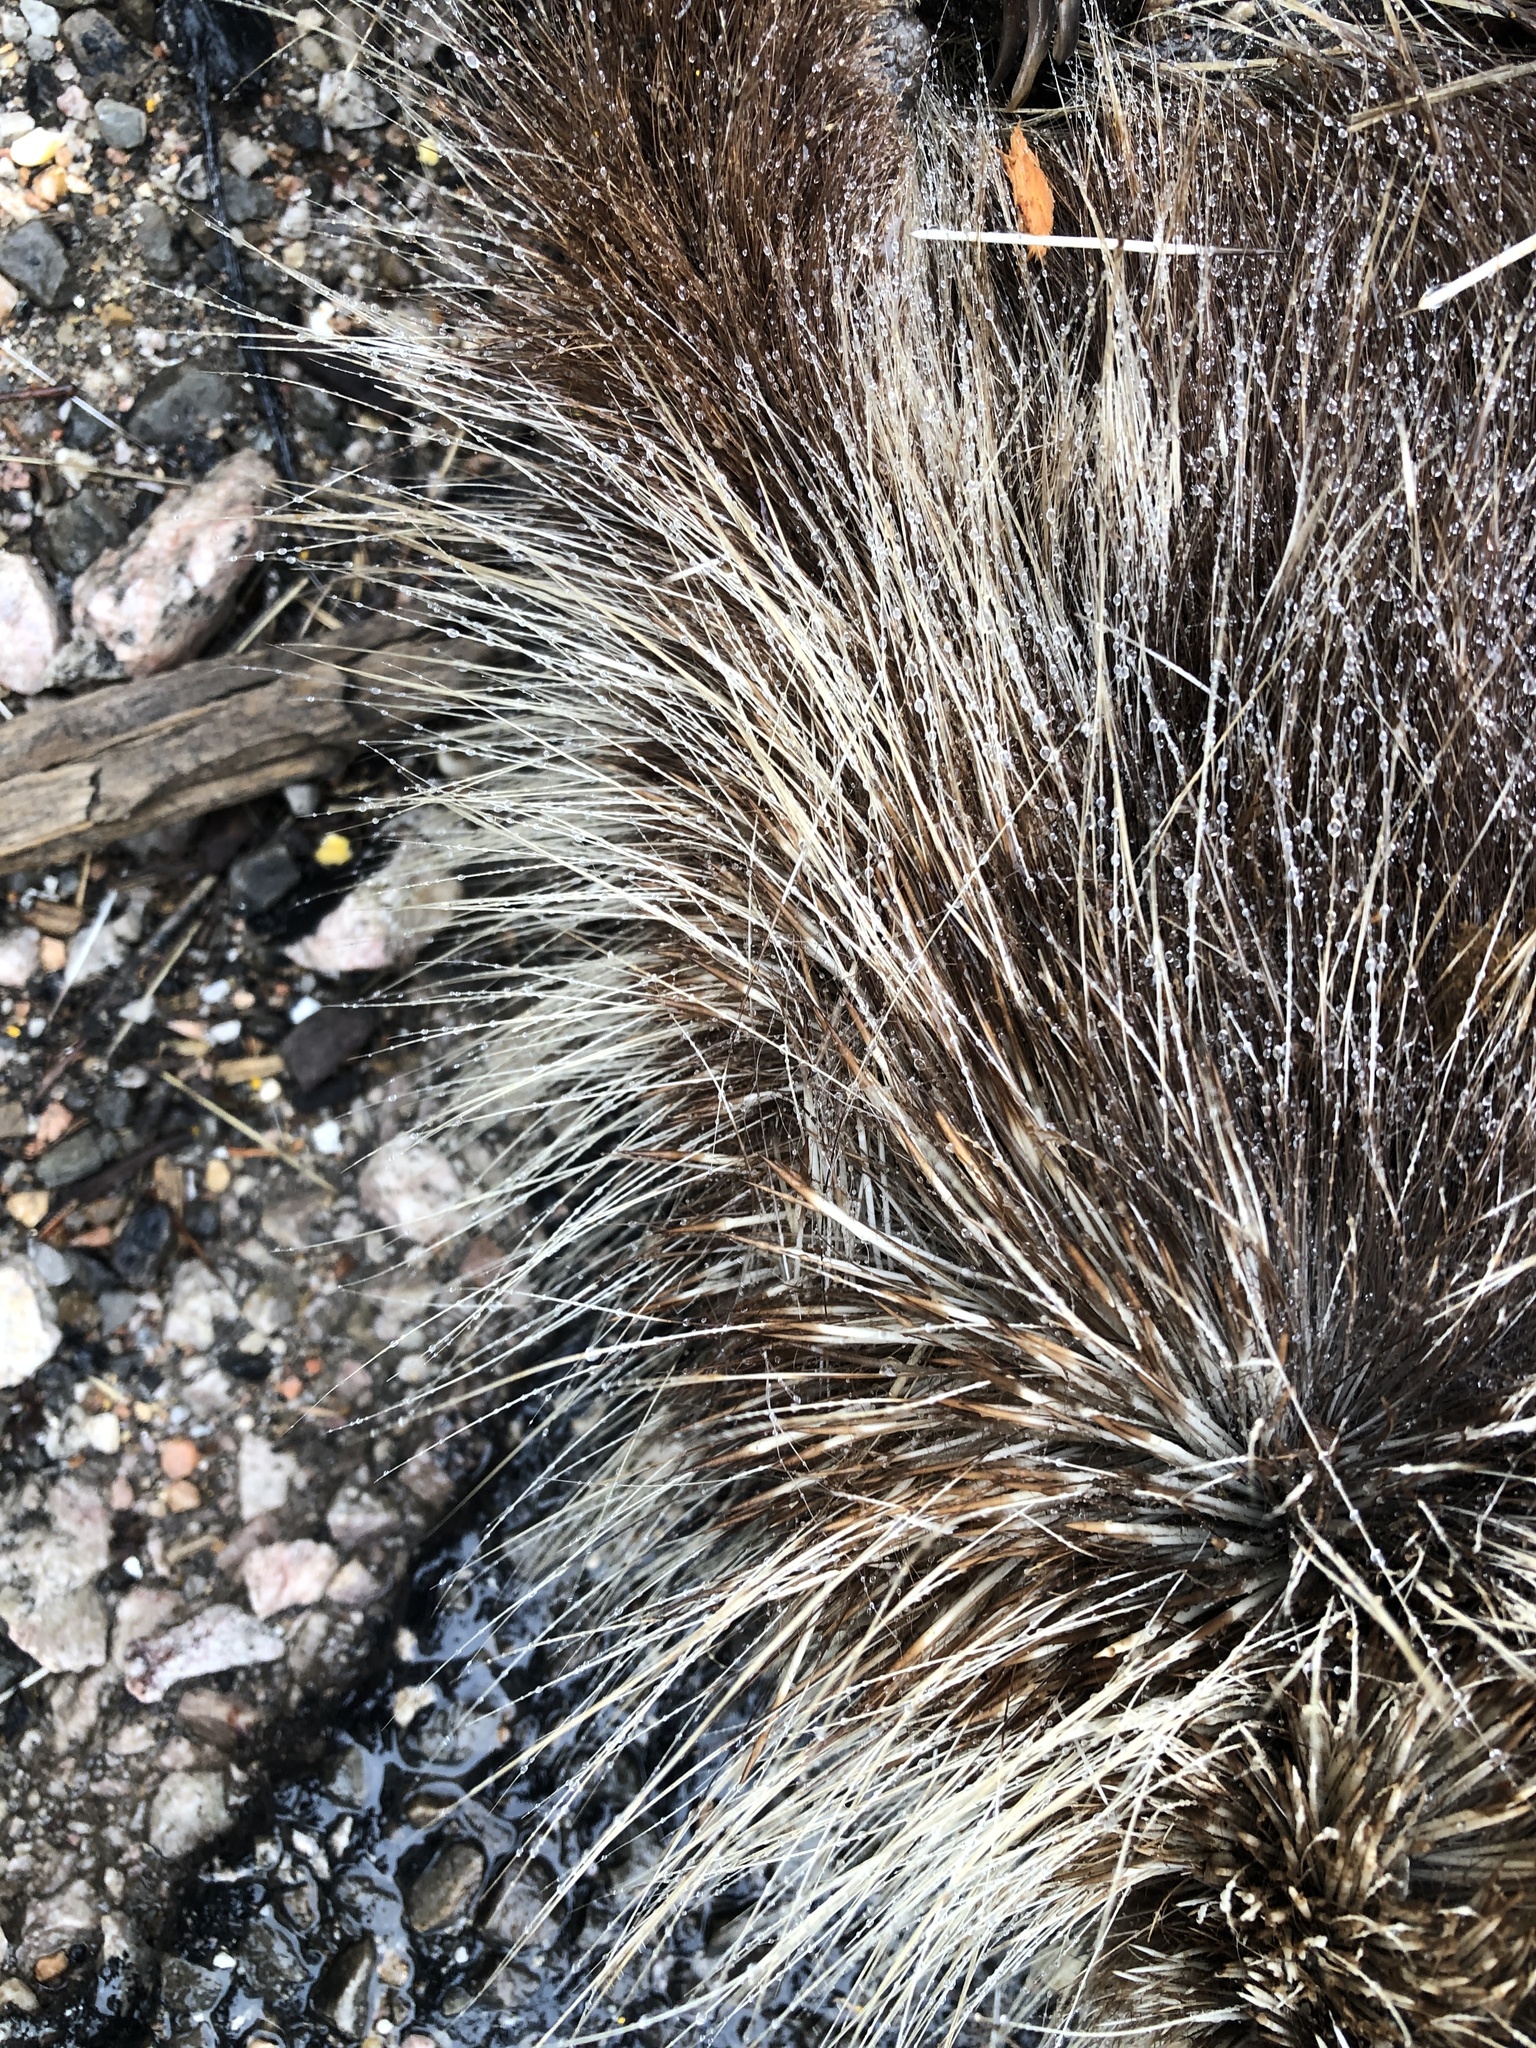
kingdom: Animalia
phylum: Chordata
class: Mammalia
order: Rodentia
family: Erethizontidae
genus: Erethizon
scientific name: Erethizon dorsatus
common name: North american porcupine
